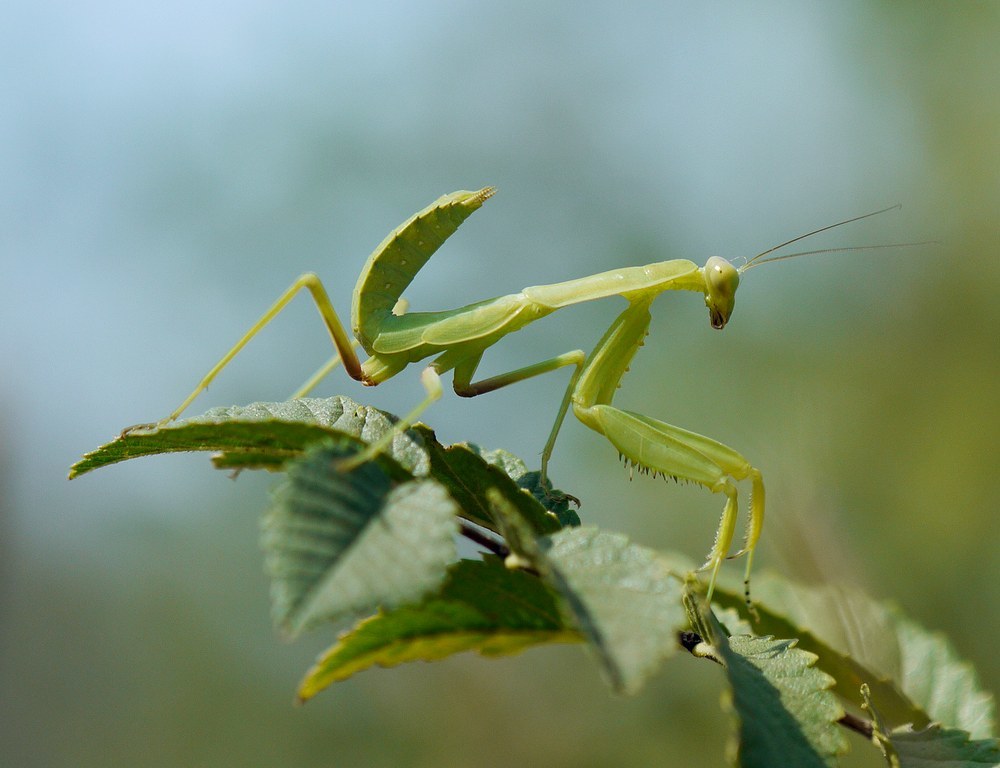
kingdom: Animalia
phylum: Arthropoda
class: Insecta
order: Mantodea
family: Mantidae
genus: Hierodula
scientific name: Hierodula transcaucasica
